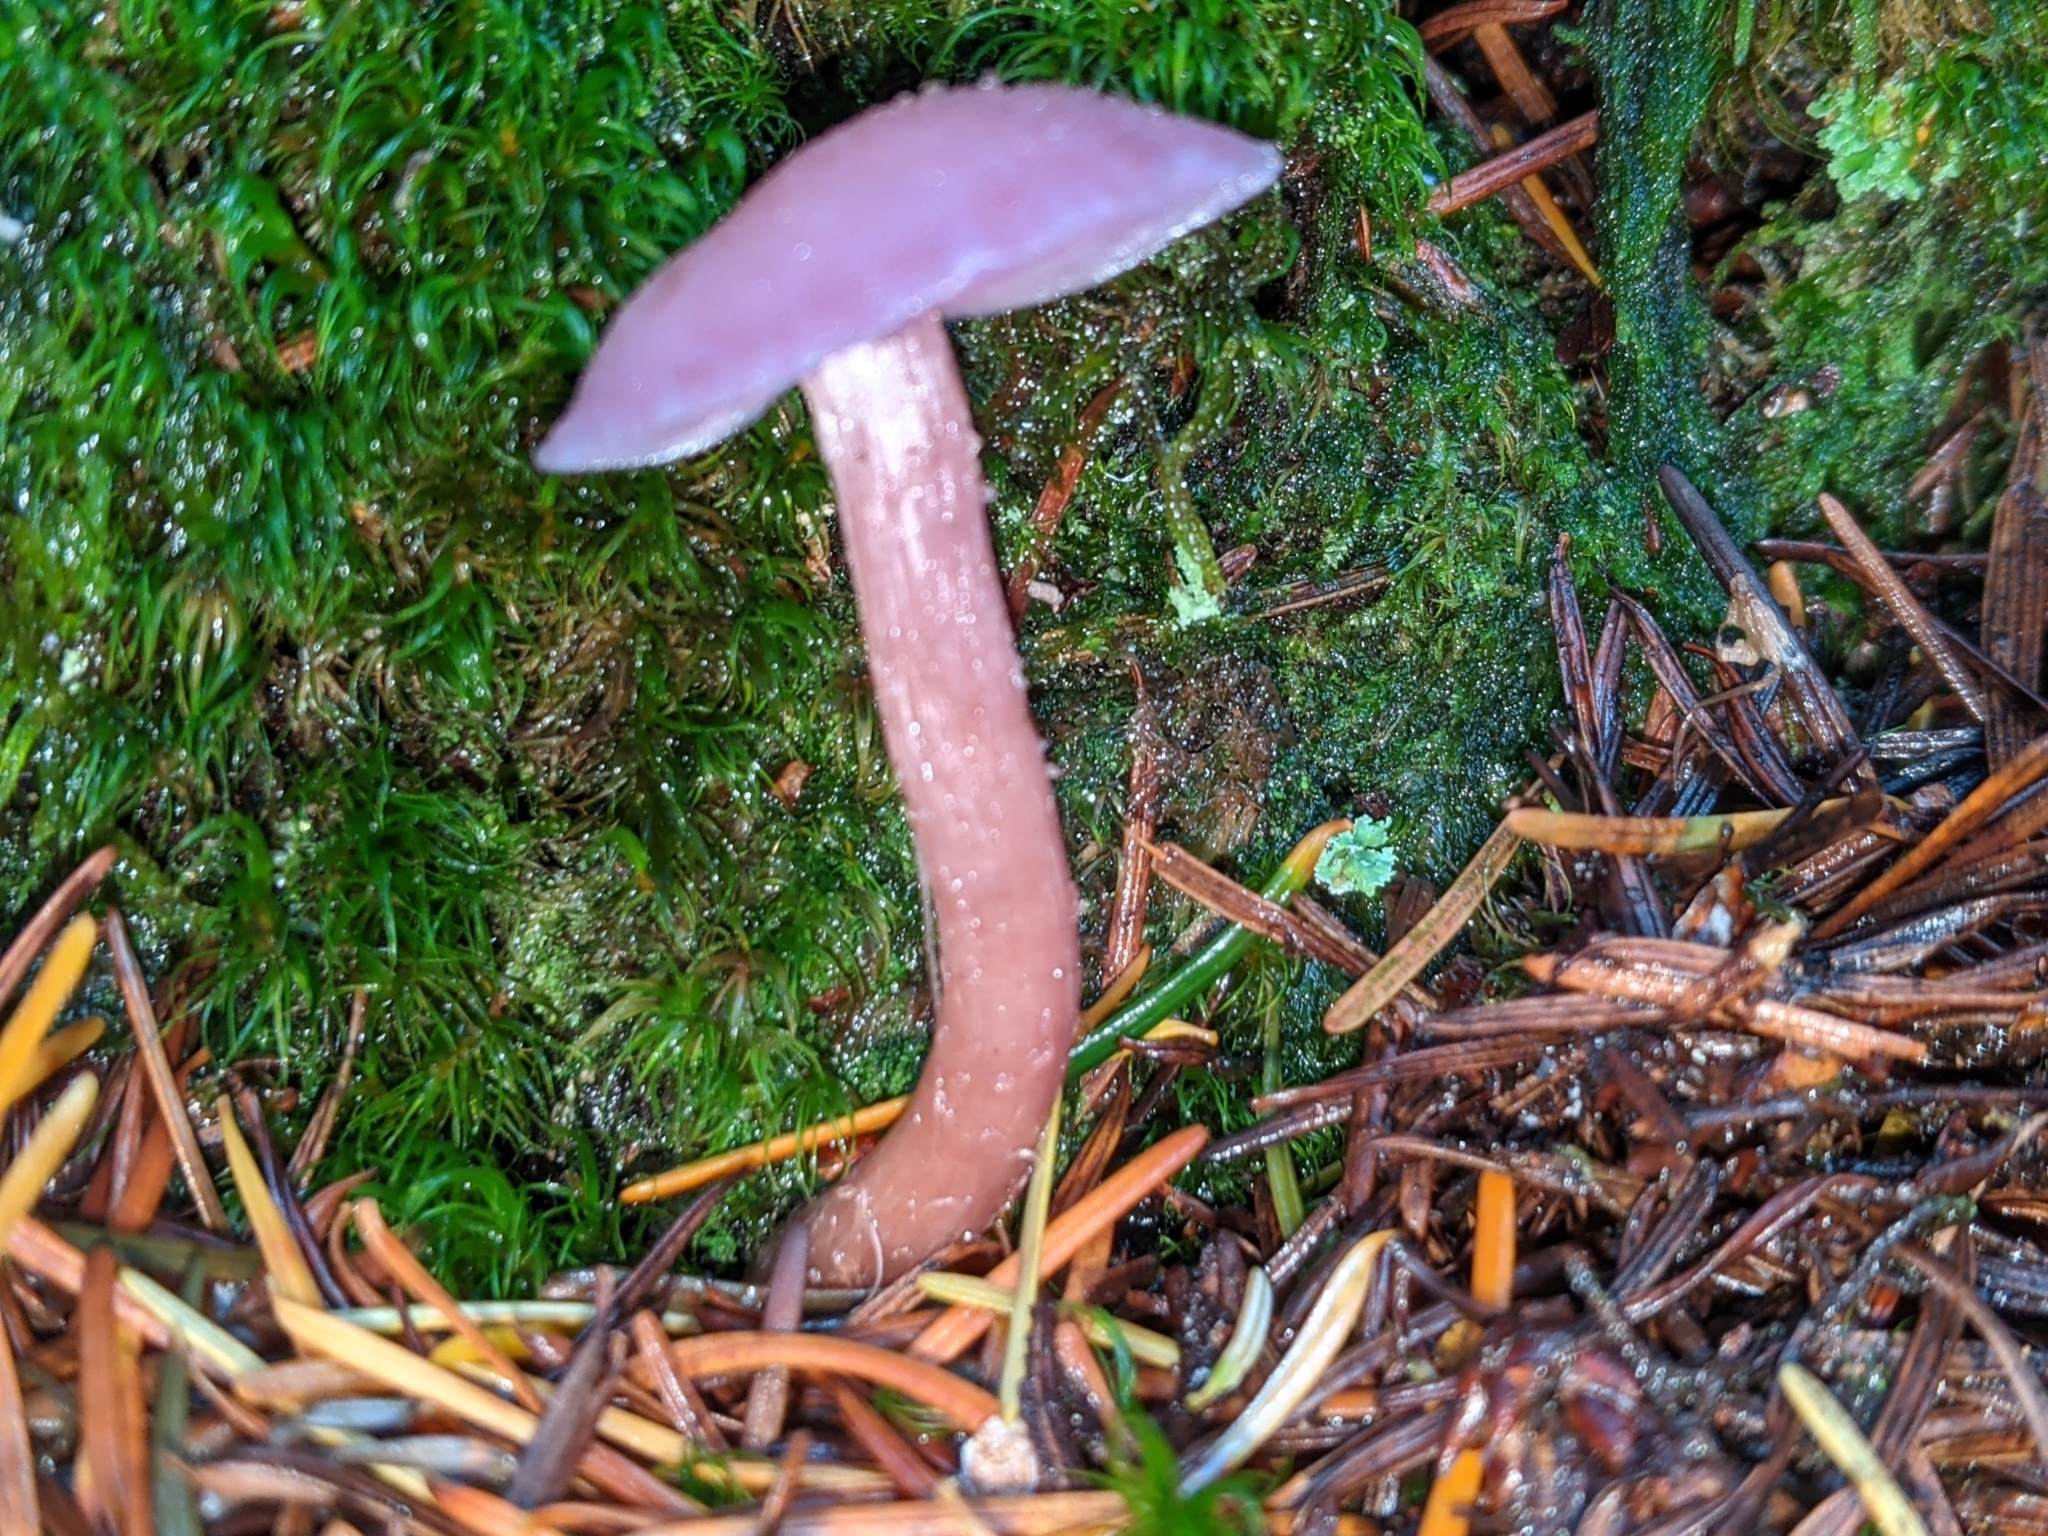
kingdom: Fungi
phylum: Basidiomycota
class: Agaricomycetes
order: Agaricales
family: Hydnangiaceae
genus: Laccaria
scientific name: Laccaria amethysteo-occidentalis
